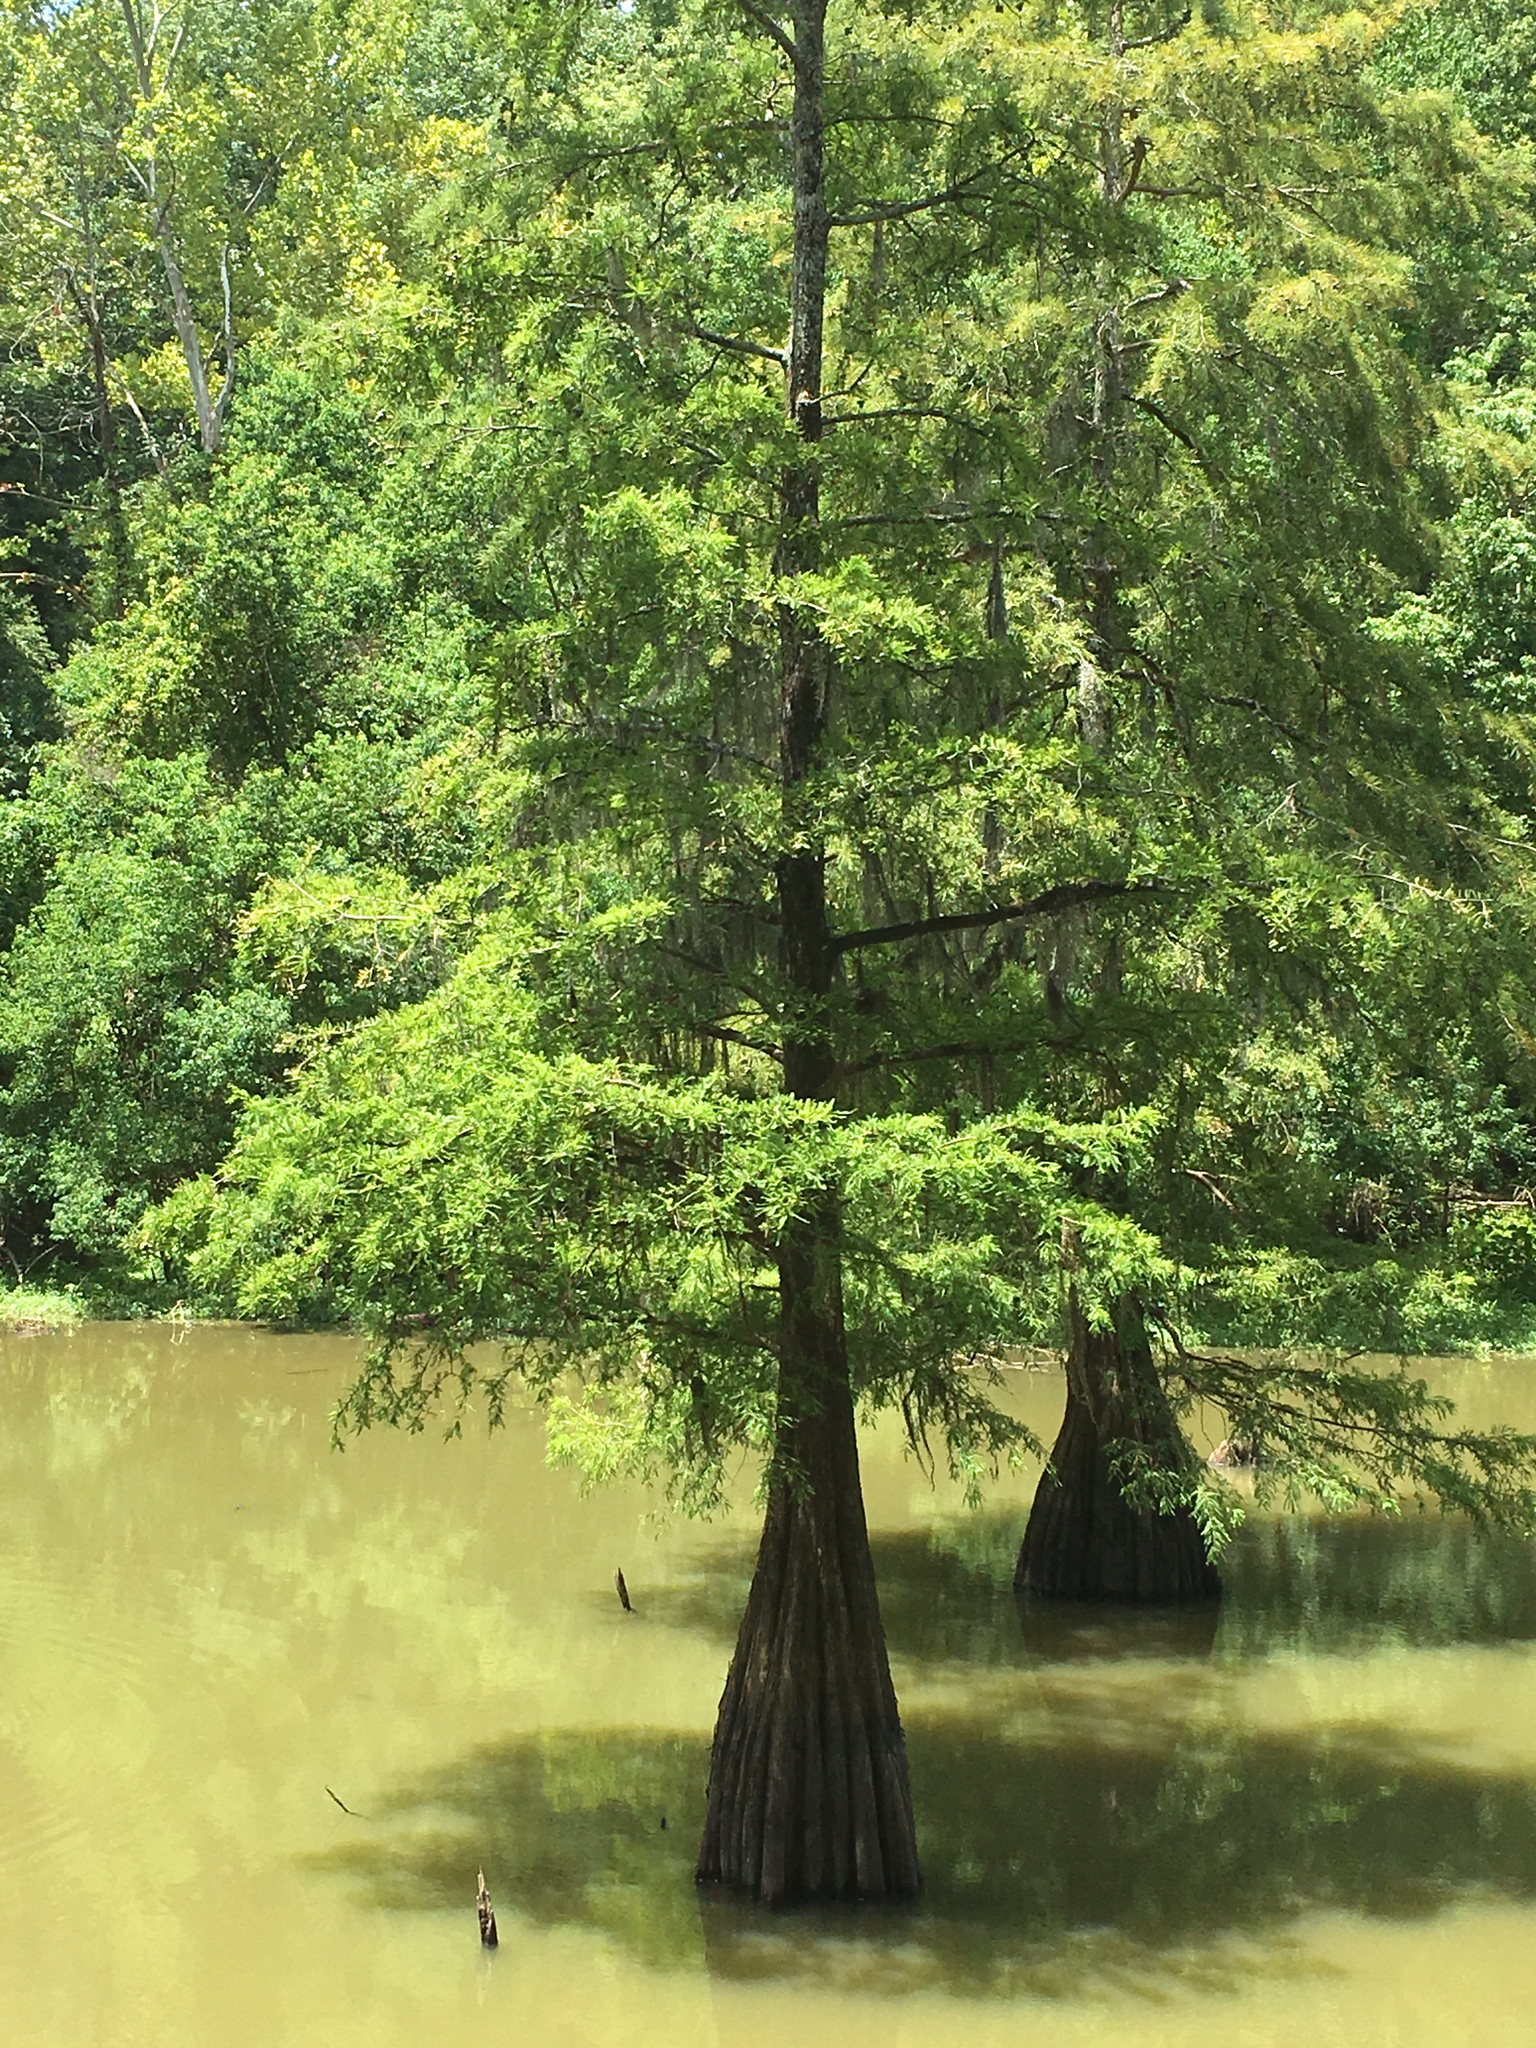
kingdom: Plantae
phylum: Tracheophyta
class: Pinopsida
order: Pinales
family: Cupressaceae
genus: Taxodium
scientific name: Taxodium distichum
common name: Bald cypress
